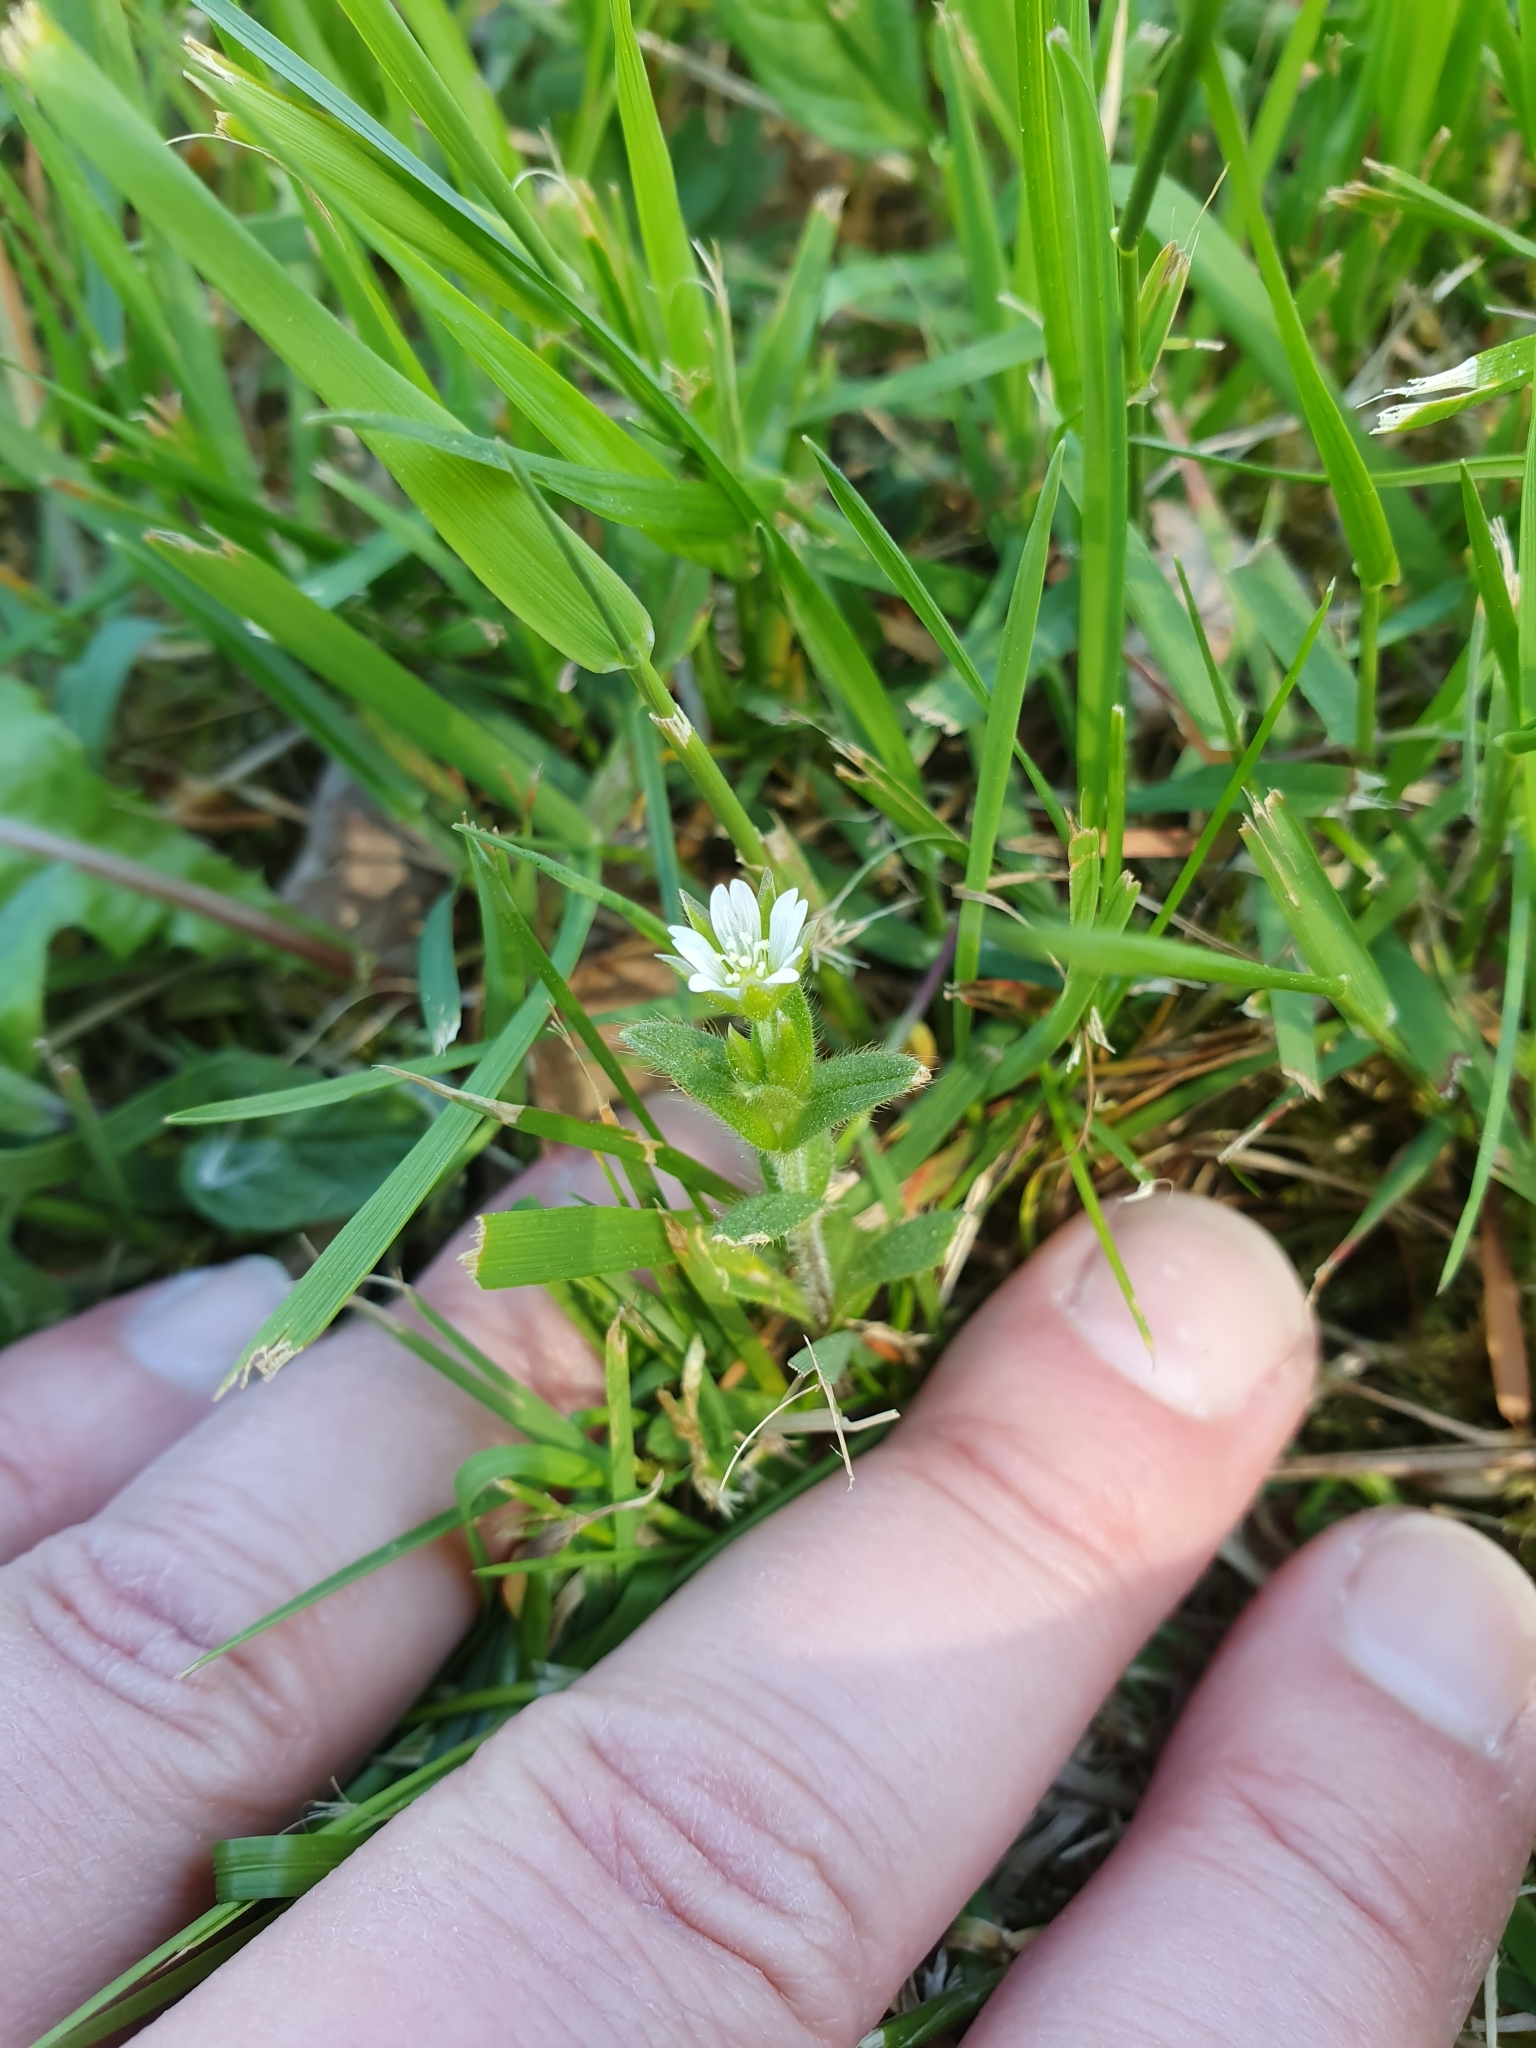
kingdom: Plantae
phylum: Tracheophyta
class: Magnoliopsida
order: Caryophyllales
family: Caryophyllaceae
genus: Cerastium
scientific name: Cerastium fontanum
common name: Common mouse-ear
